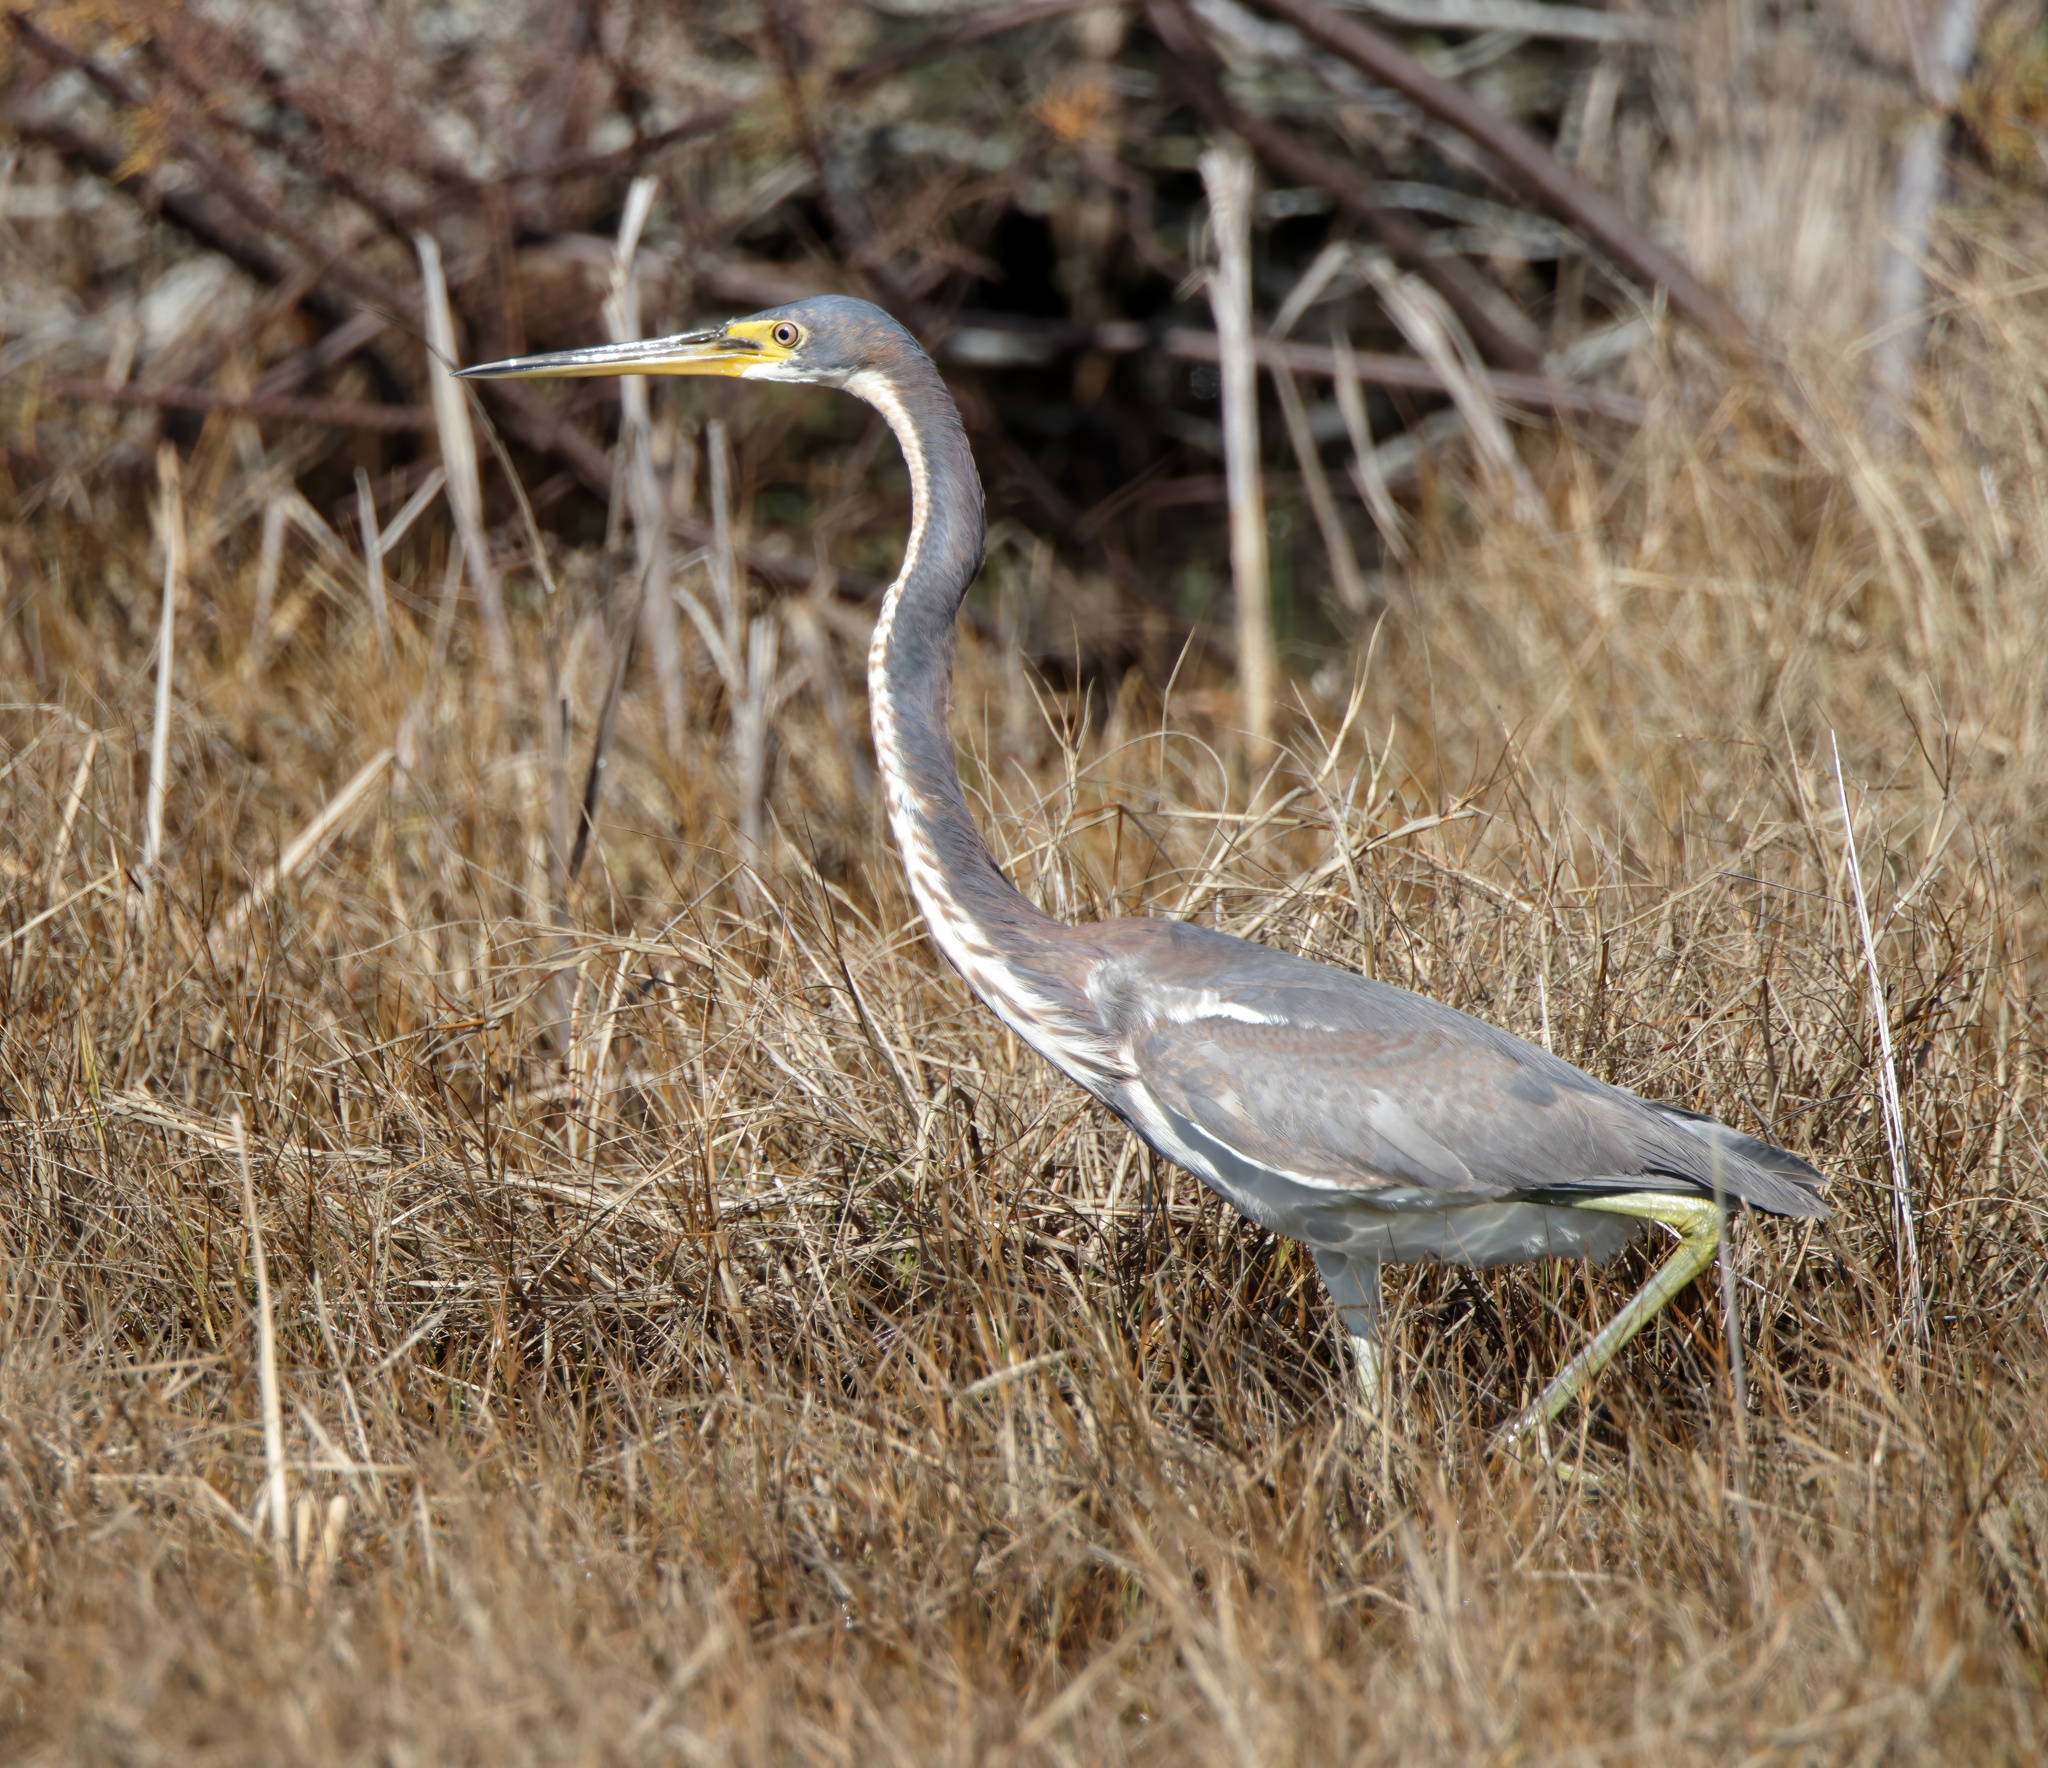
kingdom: Animalia
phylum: Chordata
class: Aves
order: Pelecaniformes
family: Ardeidae
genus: Egretta
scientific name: Egretta tricolor
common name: Tricolored heron
